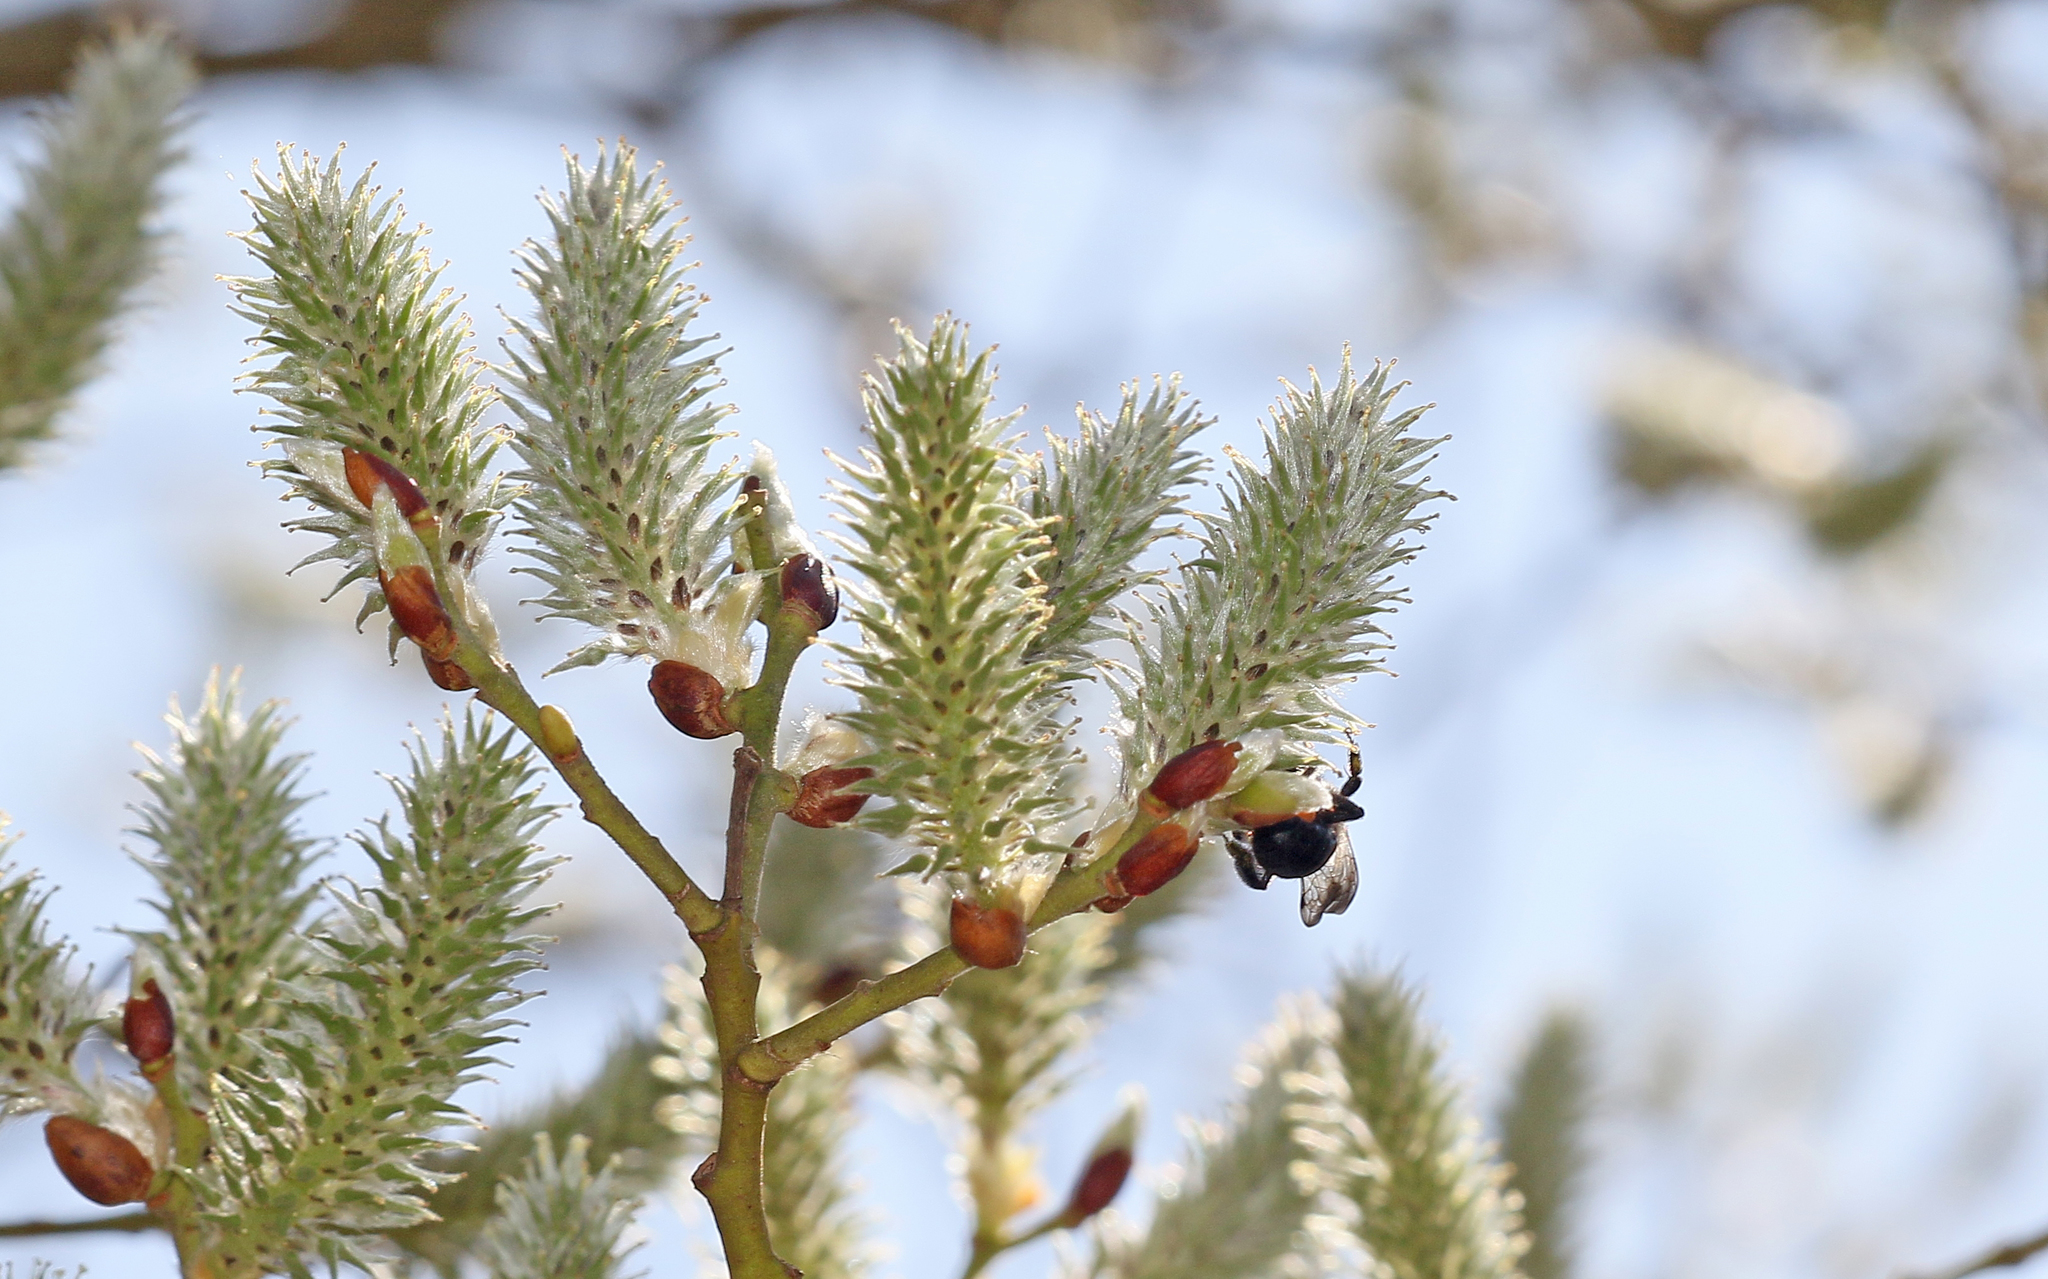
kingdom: Animalia
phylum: Arthropoda
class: Insecta
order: Hymenoptera
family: Andrenidae
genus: Andrena
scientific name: Andrena cineraria
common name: Ashy mining bee
